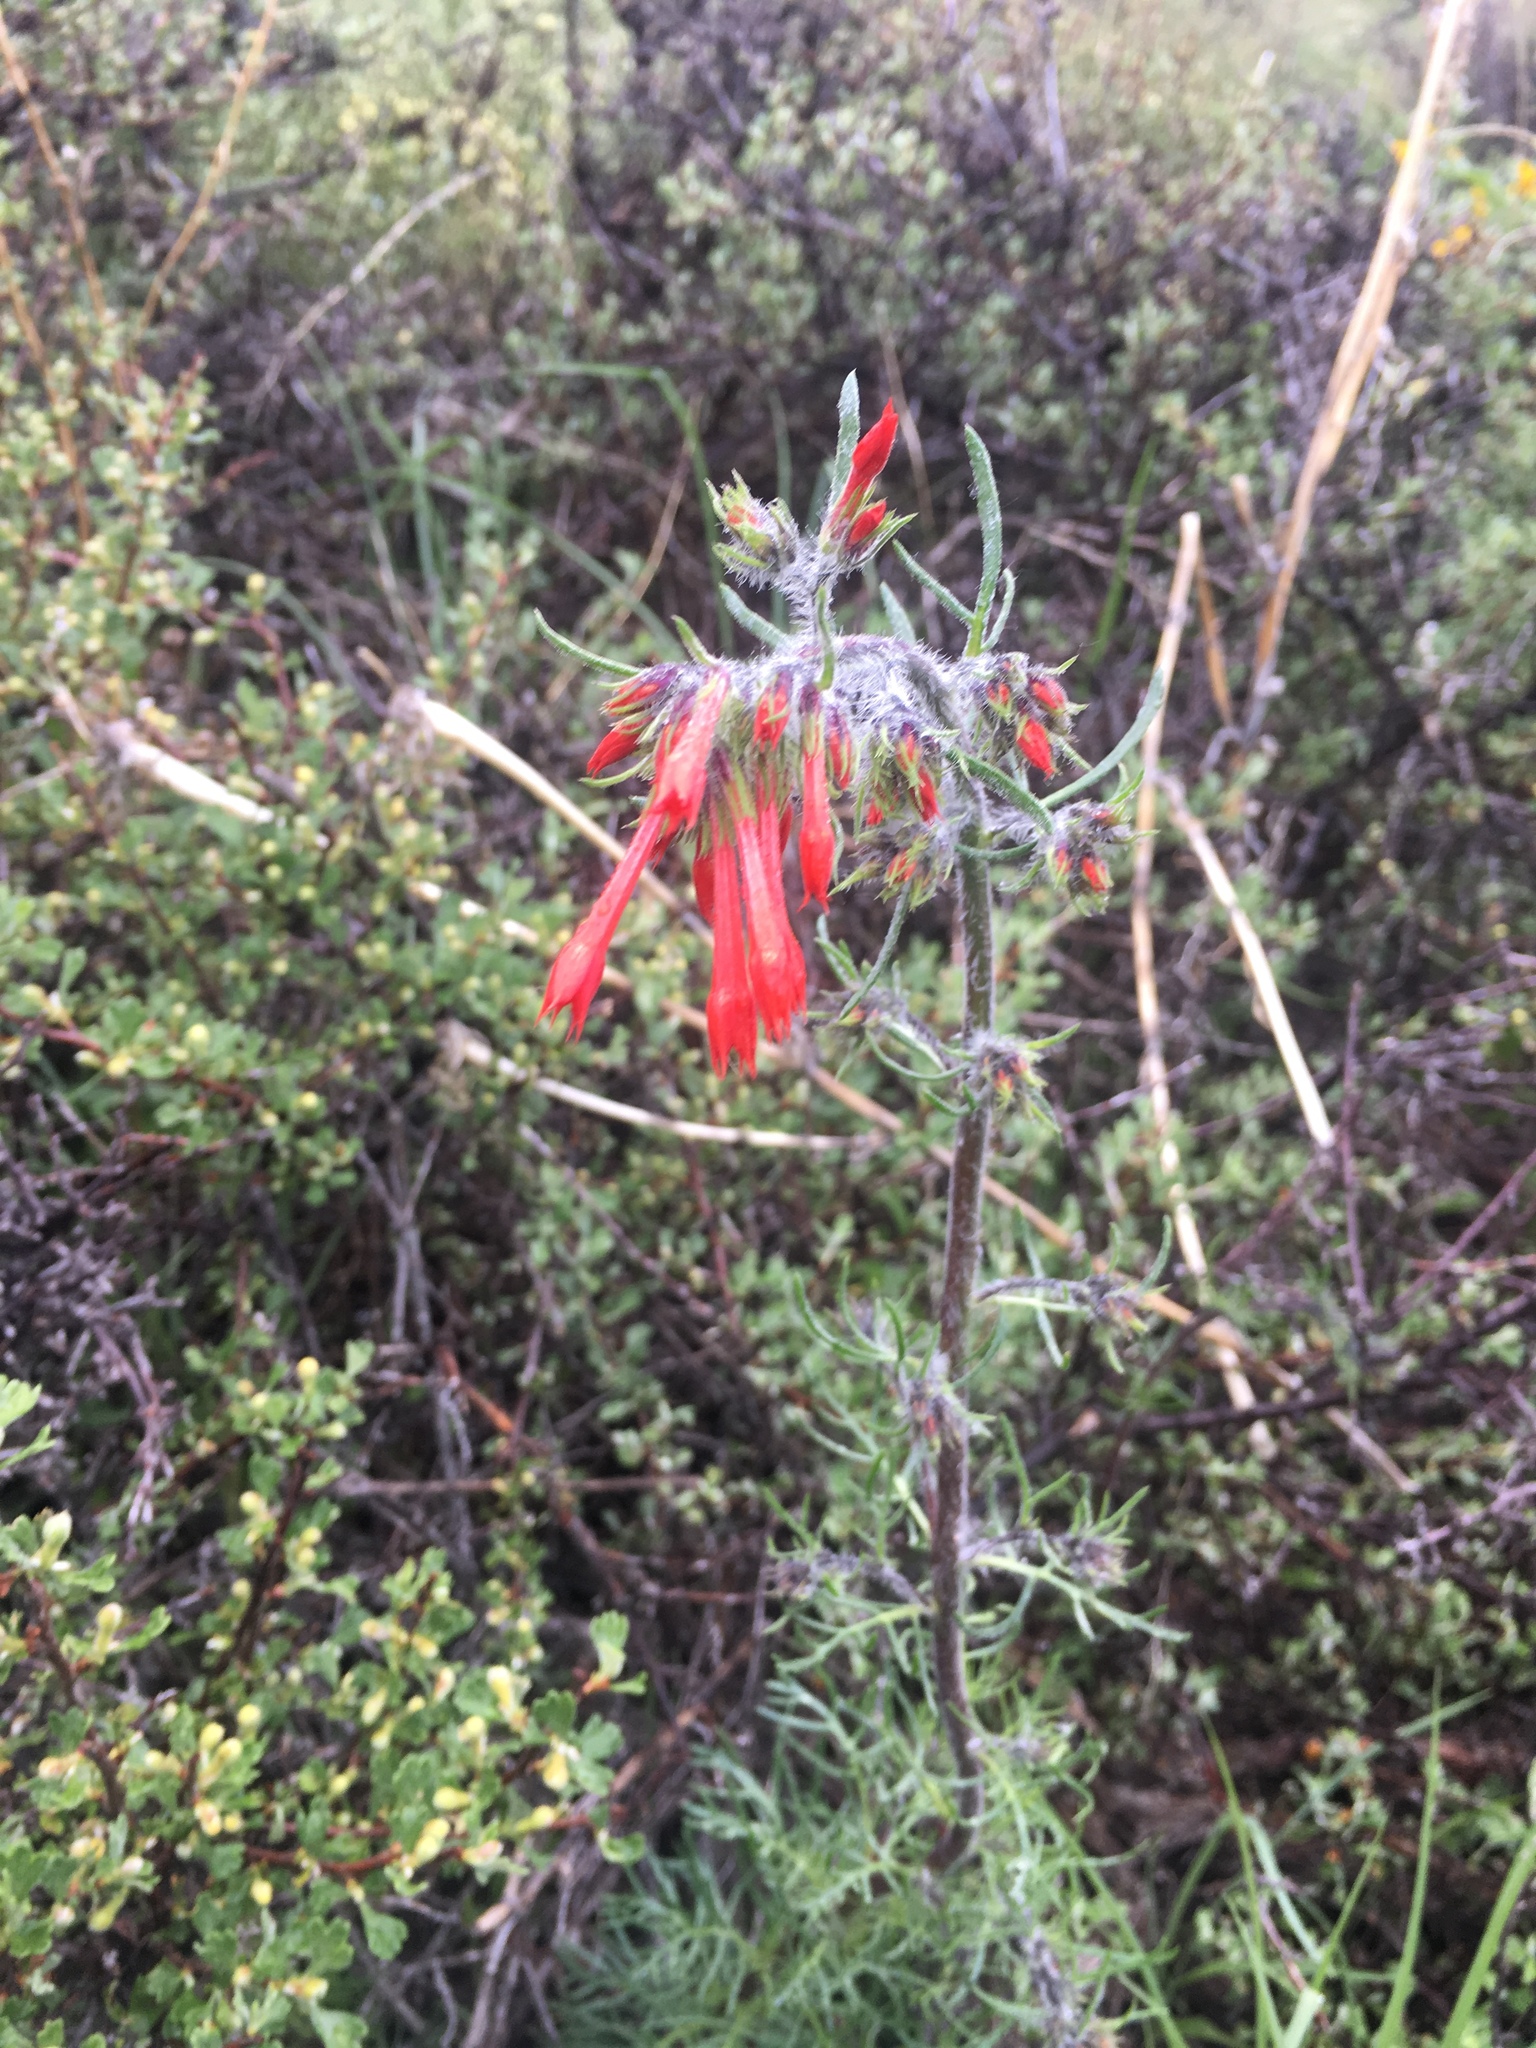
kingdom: Plantae
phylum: Tracheophyta
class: Magnoliopsida
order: Ericales
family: Polemoniaceae
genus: Ipomopsis
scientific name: Ipomopsis aggregata
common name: Scarlet gilia
